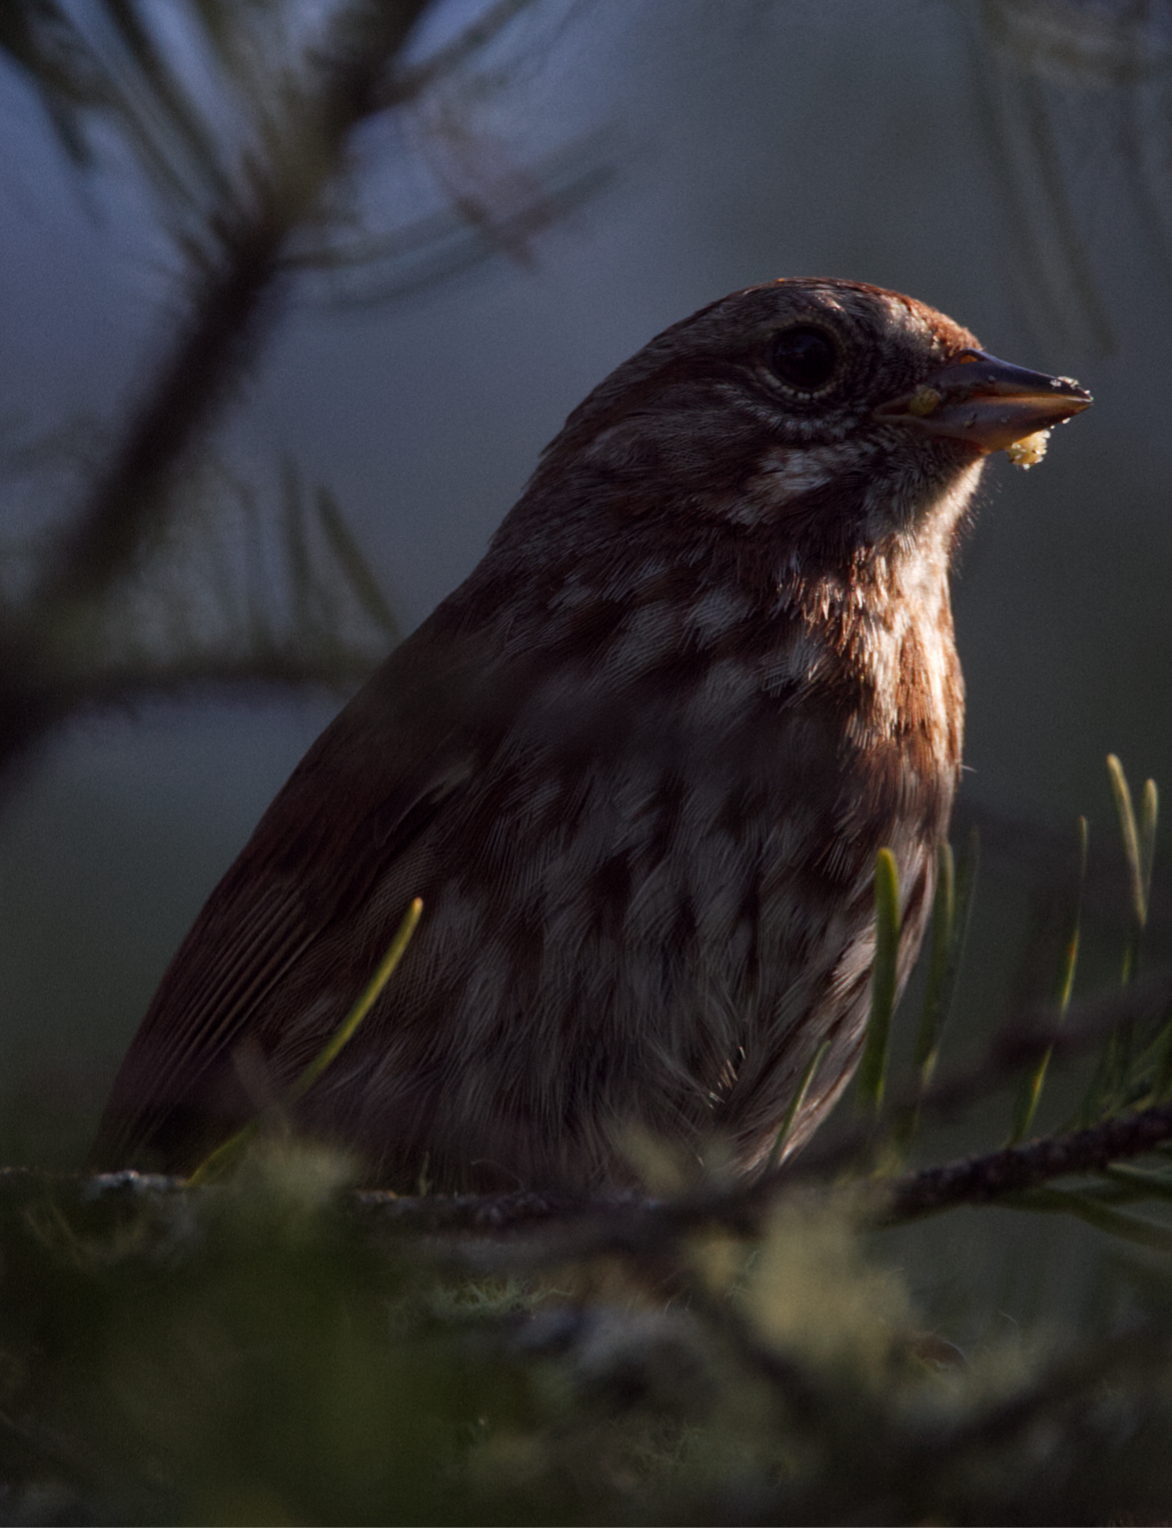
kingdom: Animalia
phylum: Chordata
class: Aves
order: Passeriformes
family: Passerellidae
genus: Melospiza
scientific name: Melospiza melodia
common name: Song sparrow
